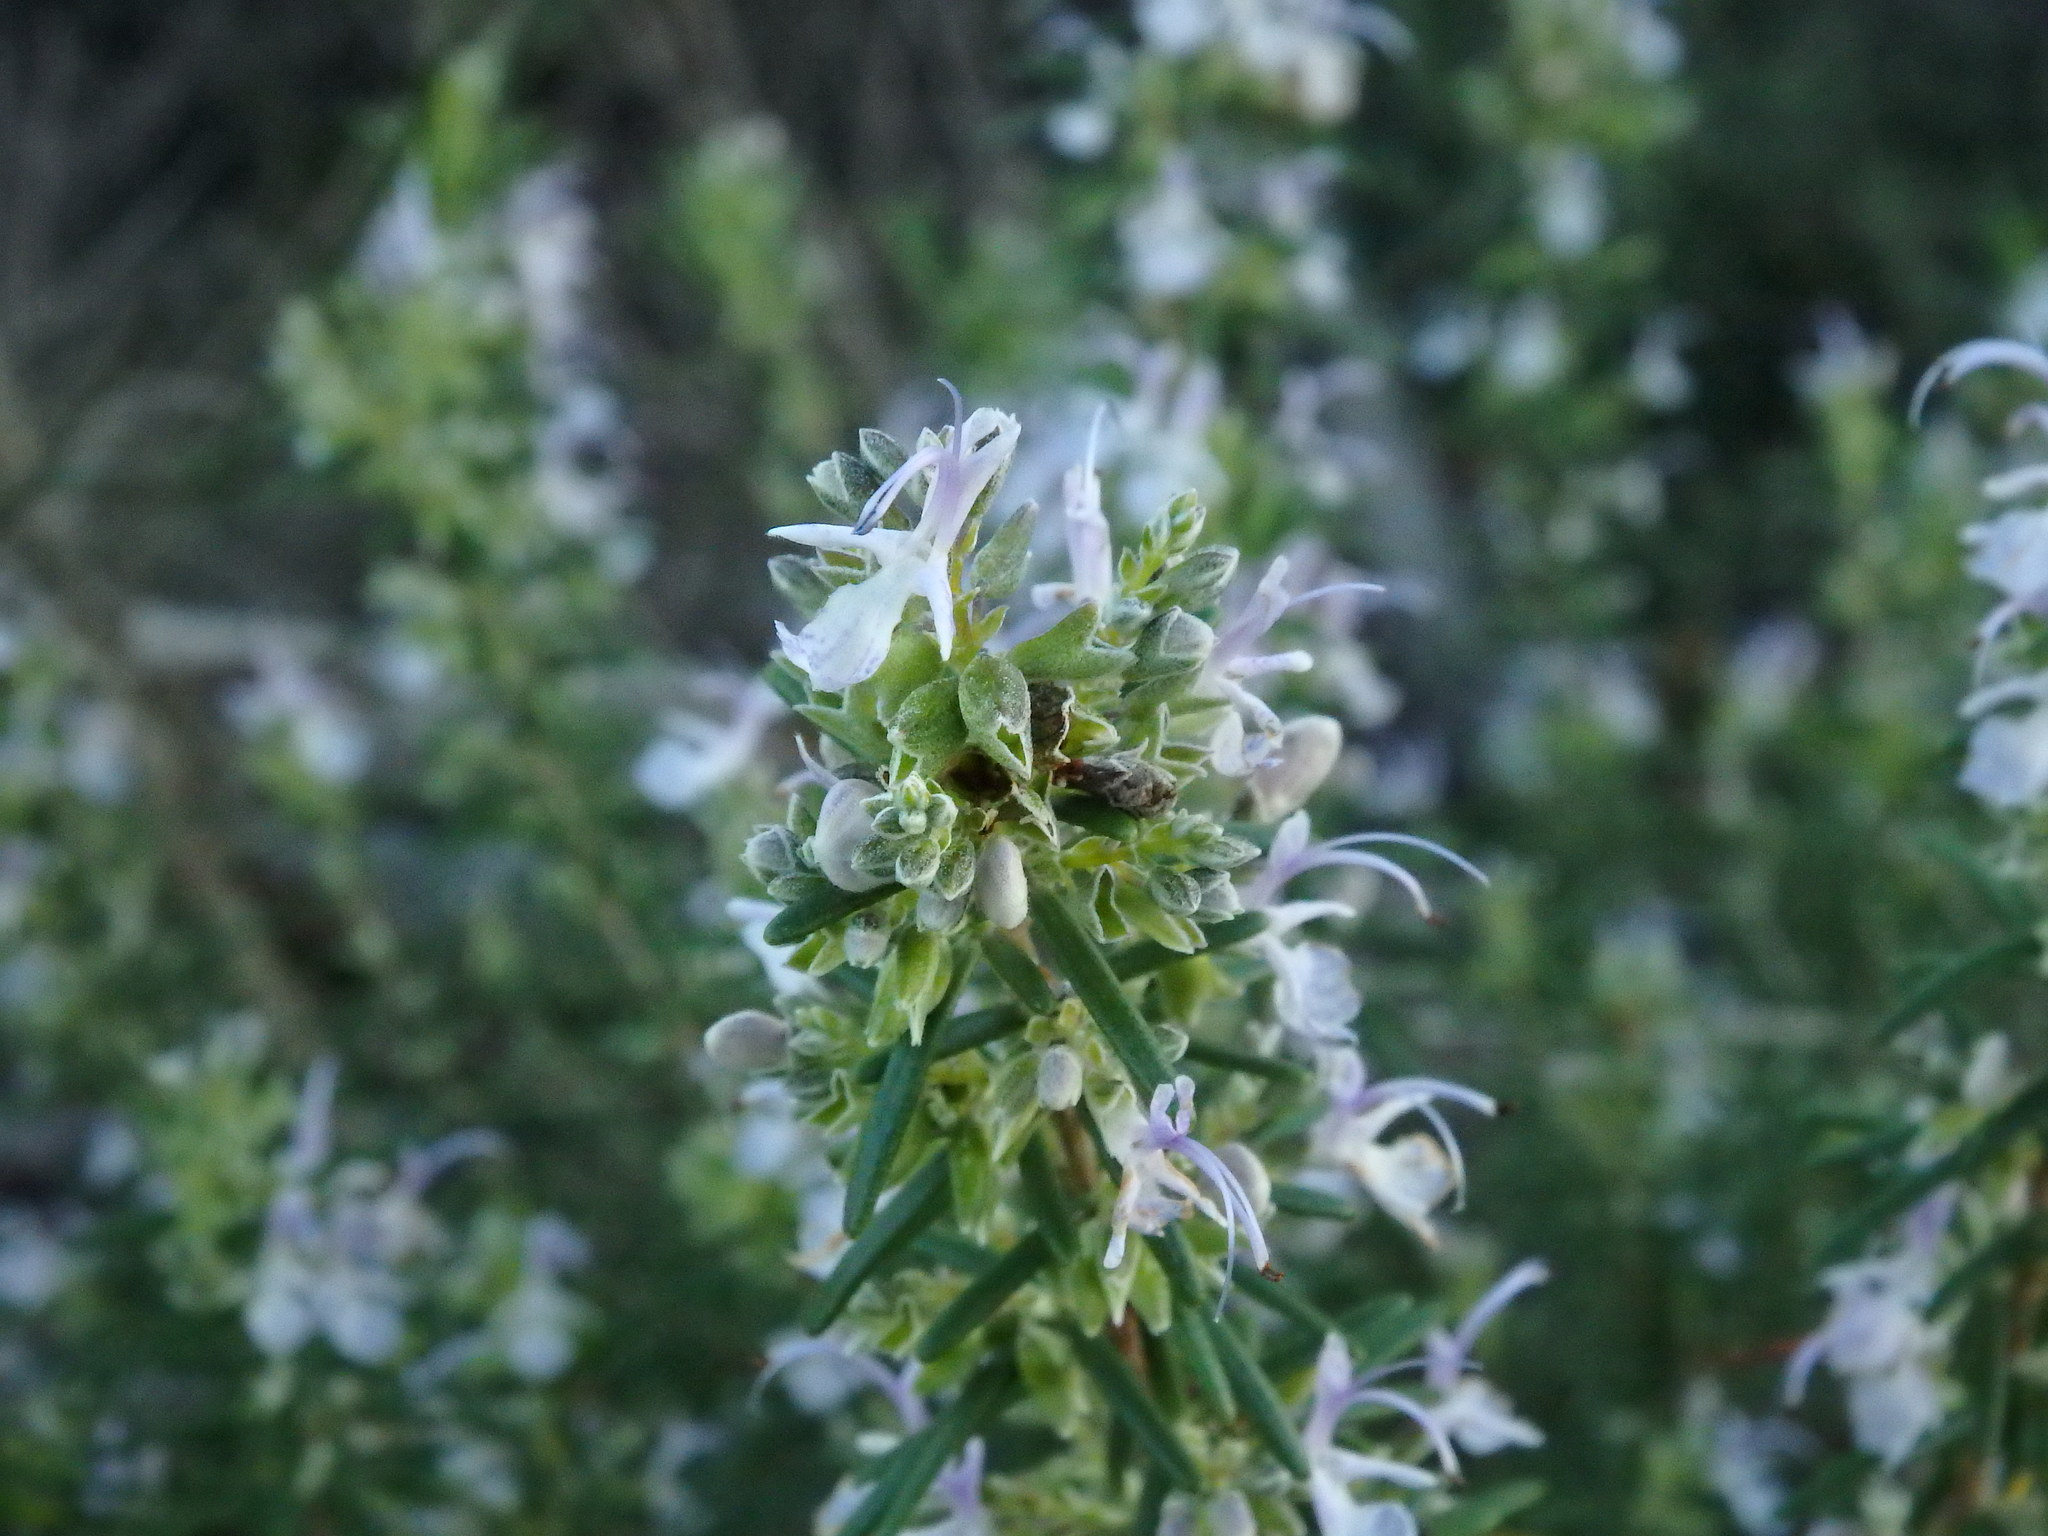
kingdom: Plantae
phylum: Tracheophyta
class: Magnoliopsida
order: Lamiales
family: Lamiaceae
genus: Salvia
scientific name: Salvia rosmarinus
